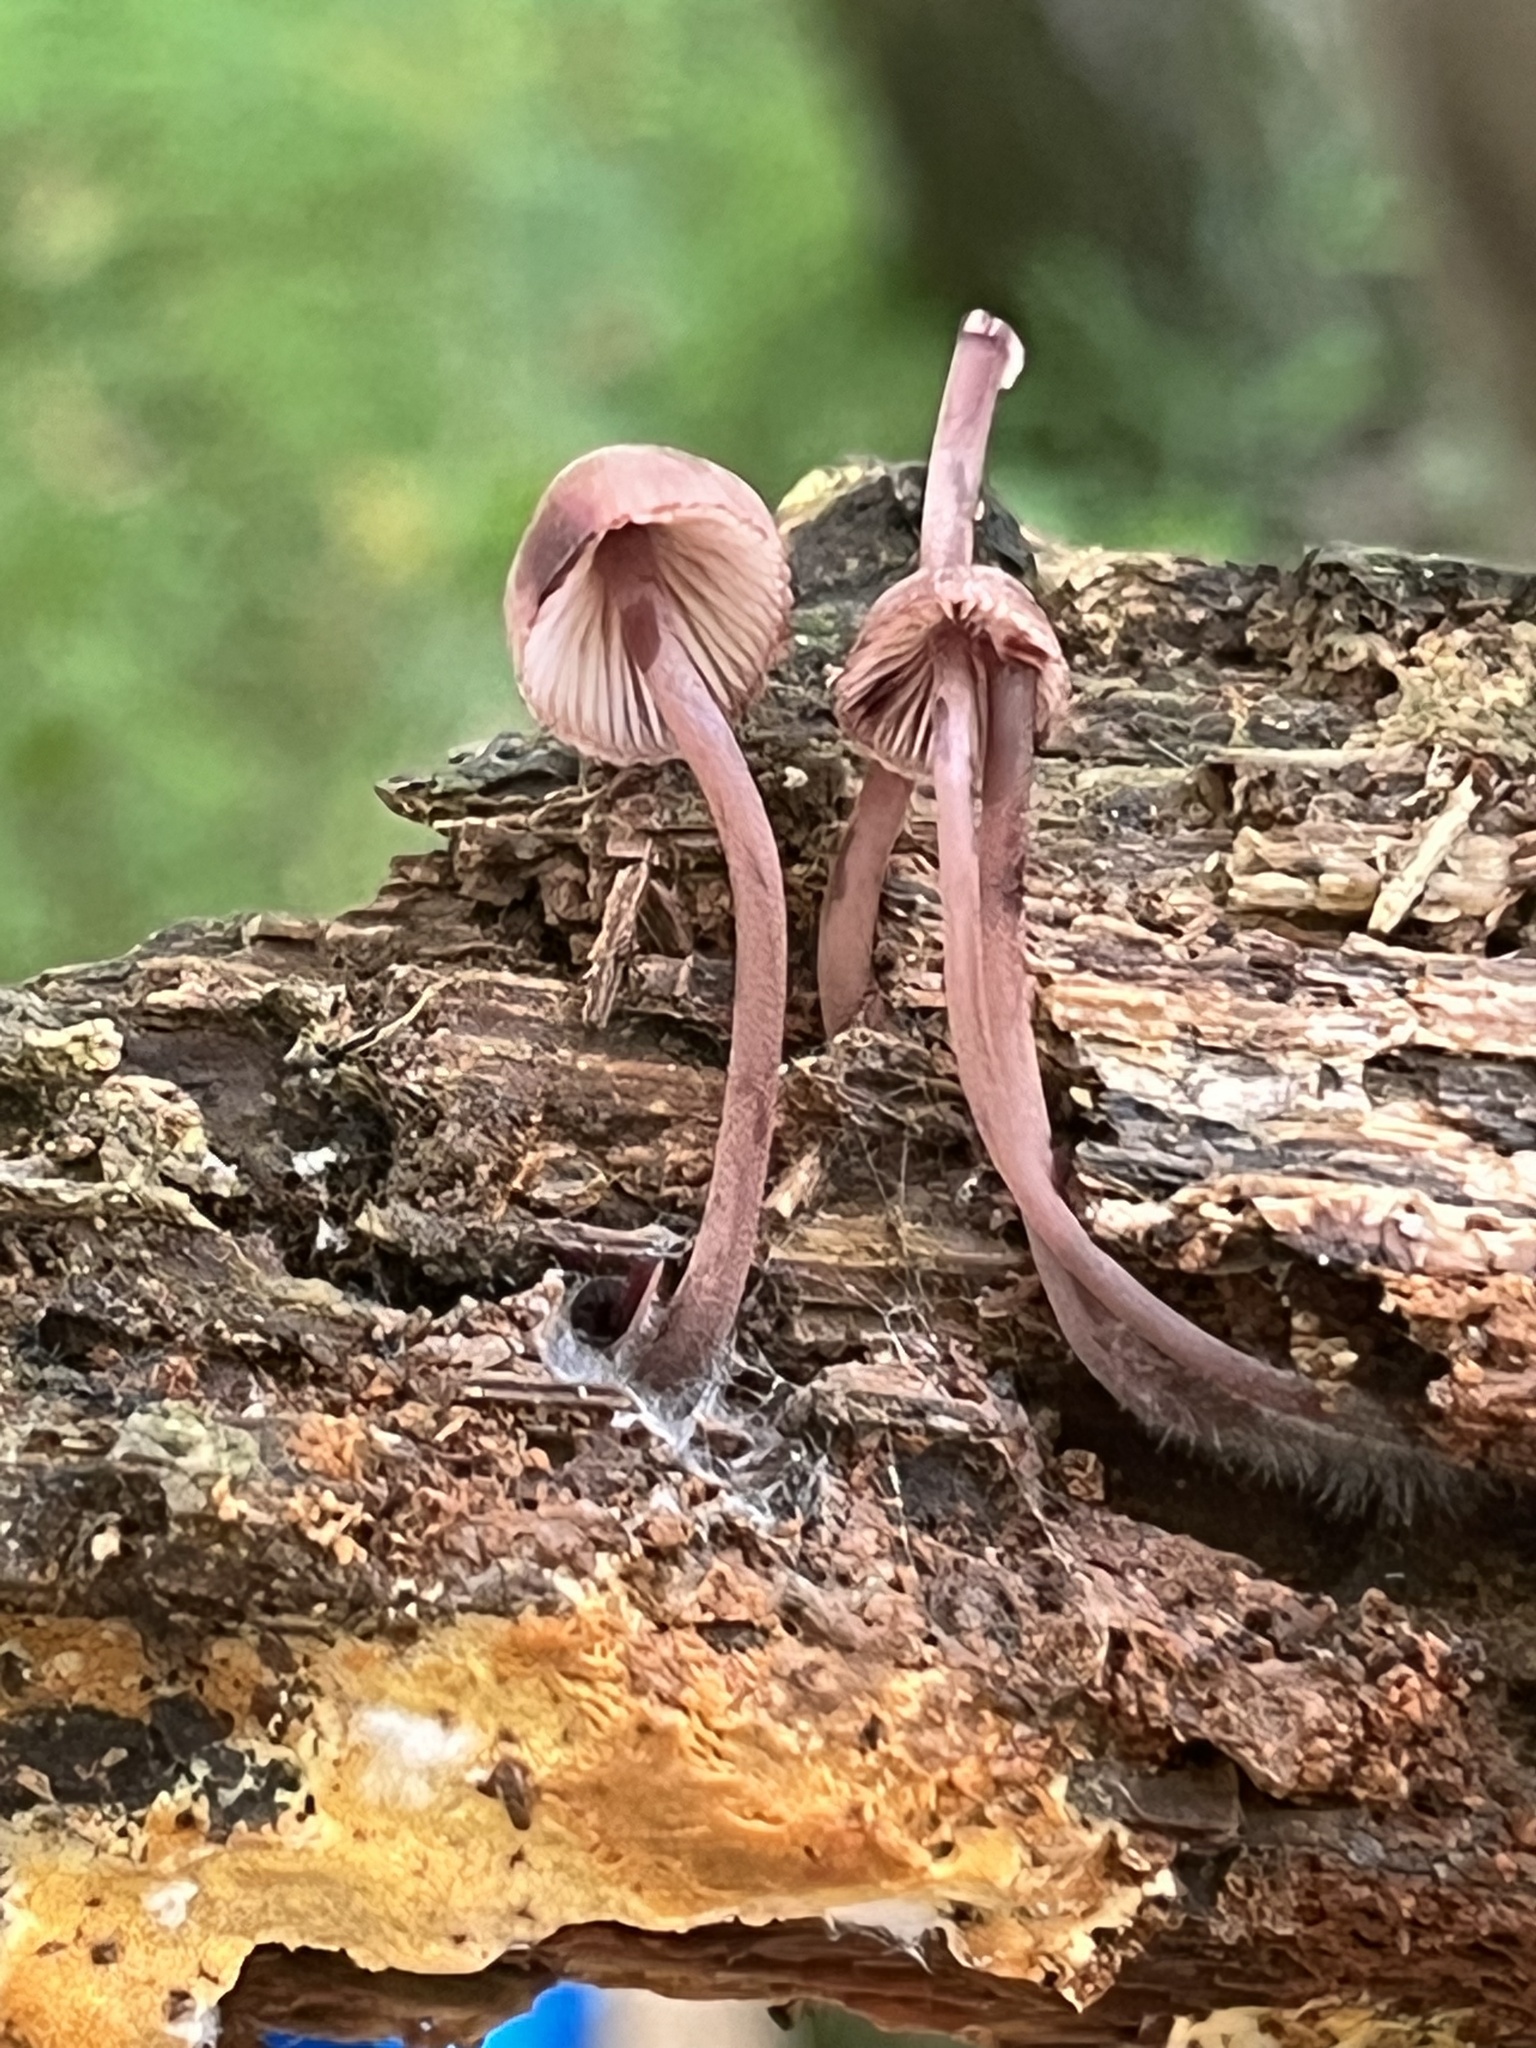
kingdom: Fungi
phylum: Basidiomycota
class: Agaricomycetes
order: Agaricales
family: Mycenaceae
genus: Mycena
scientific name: Mycena haematopus
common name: Burgundydrop bonnet
